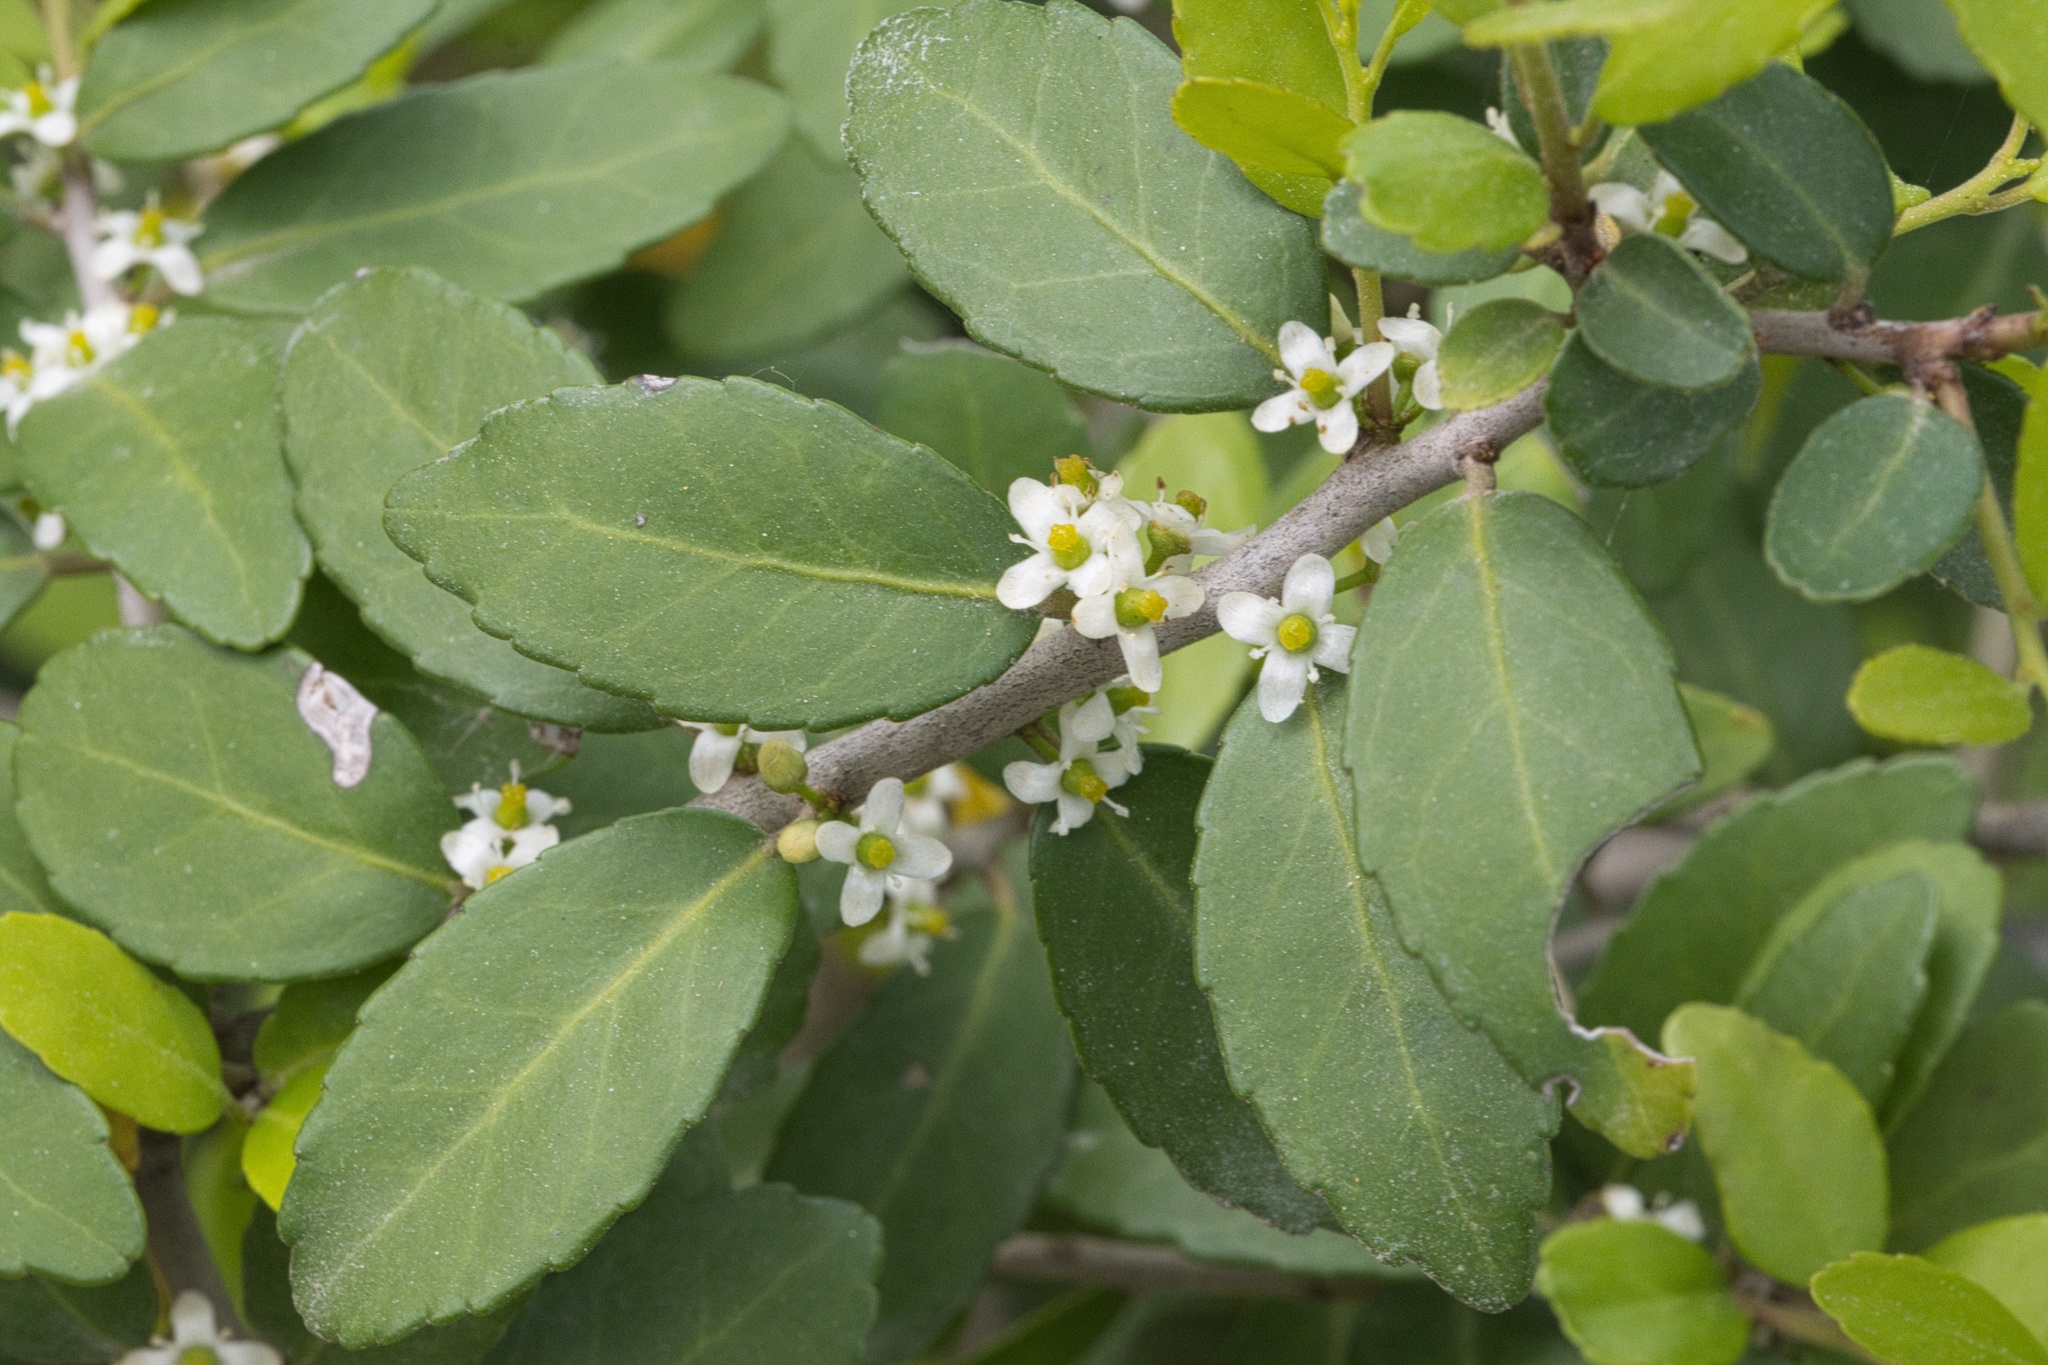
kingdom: Plantae
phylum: Tracheophyta
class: Magnoliopsida
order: Aquifoliales
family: Aquifoliaceae
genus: Ilex
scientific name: Ilex vomitoria
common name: Yaupon holly
